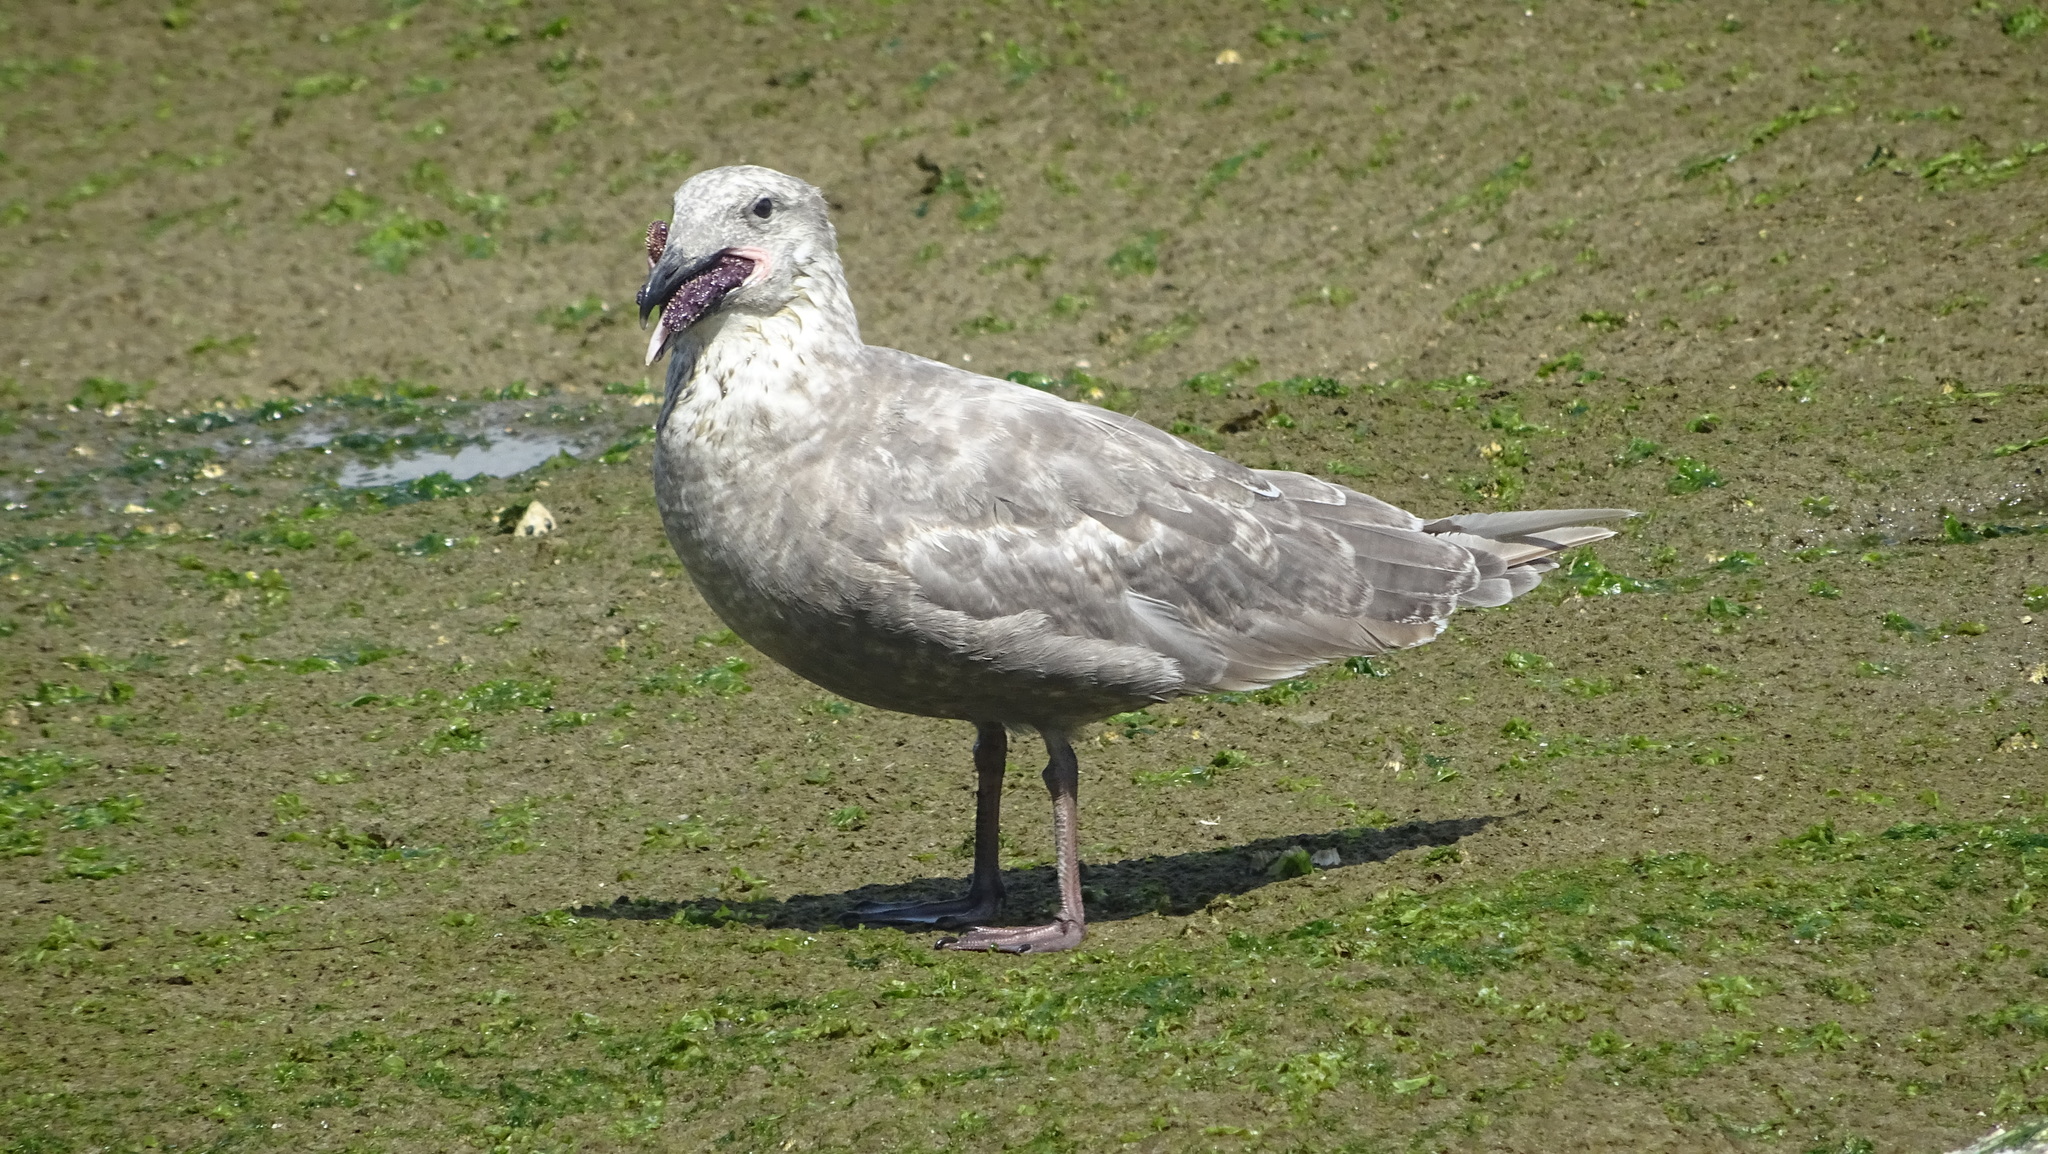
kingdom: Animalia
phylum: Chordata
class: Aves
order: Charadriiformes
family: Laridae
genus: Larus
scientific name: Larus glaucescens
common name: Glaucous-winged gull
